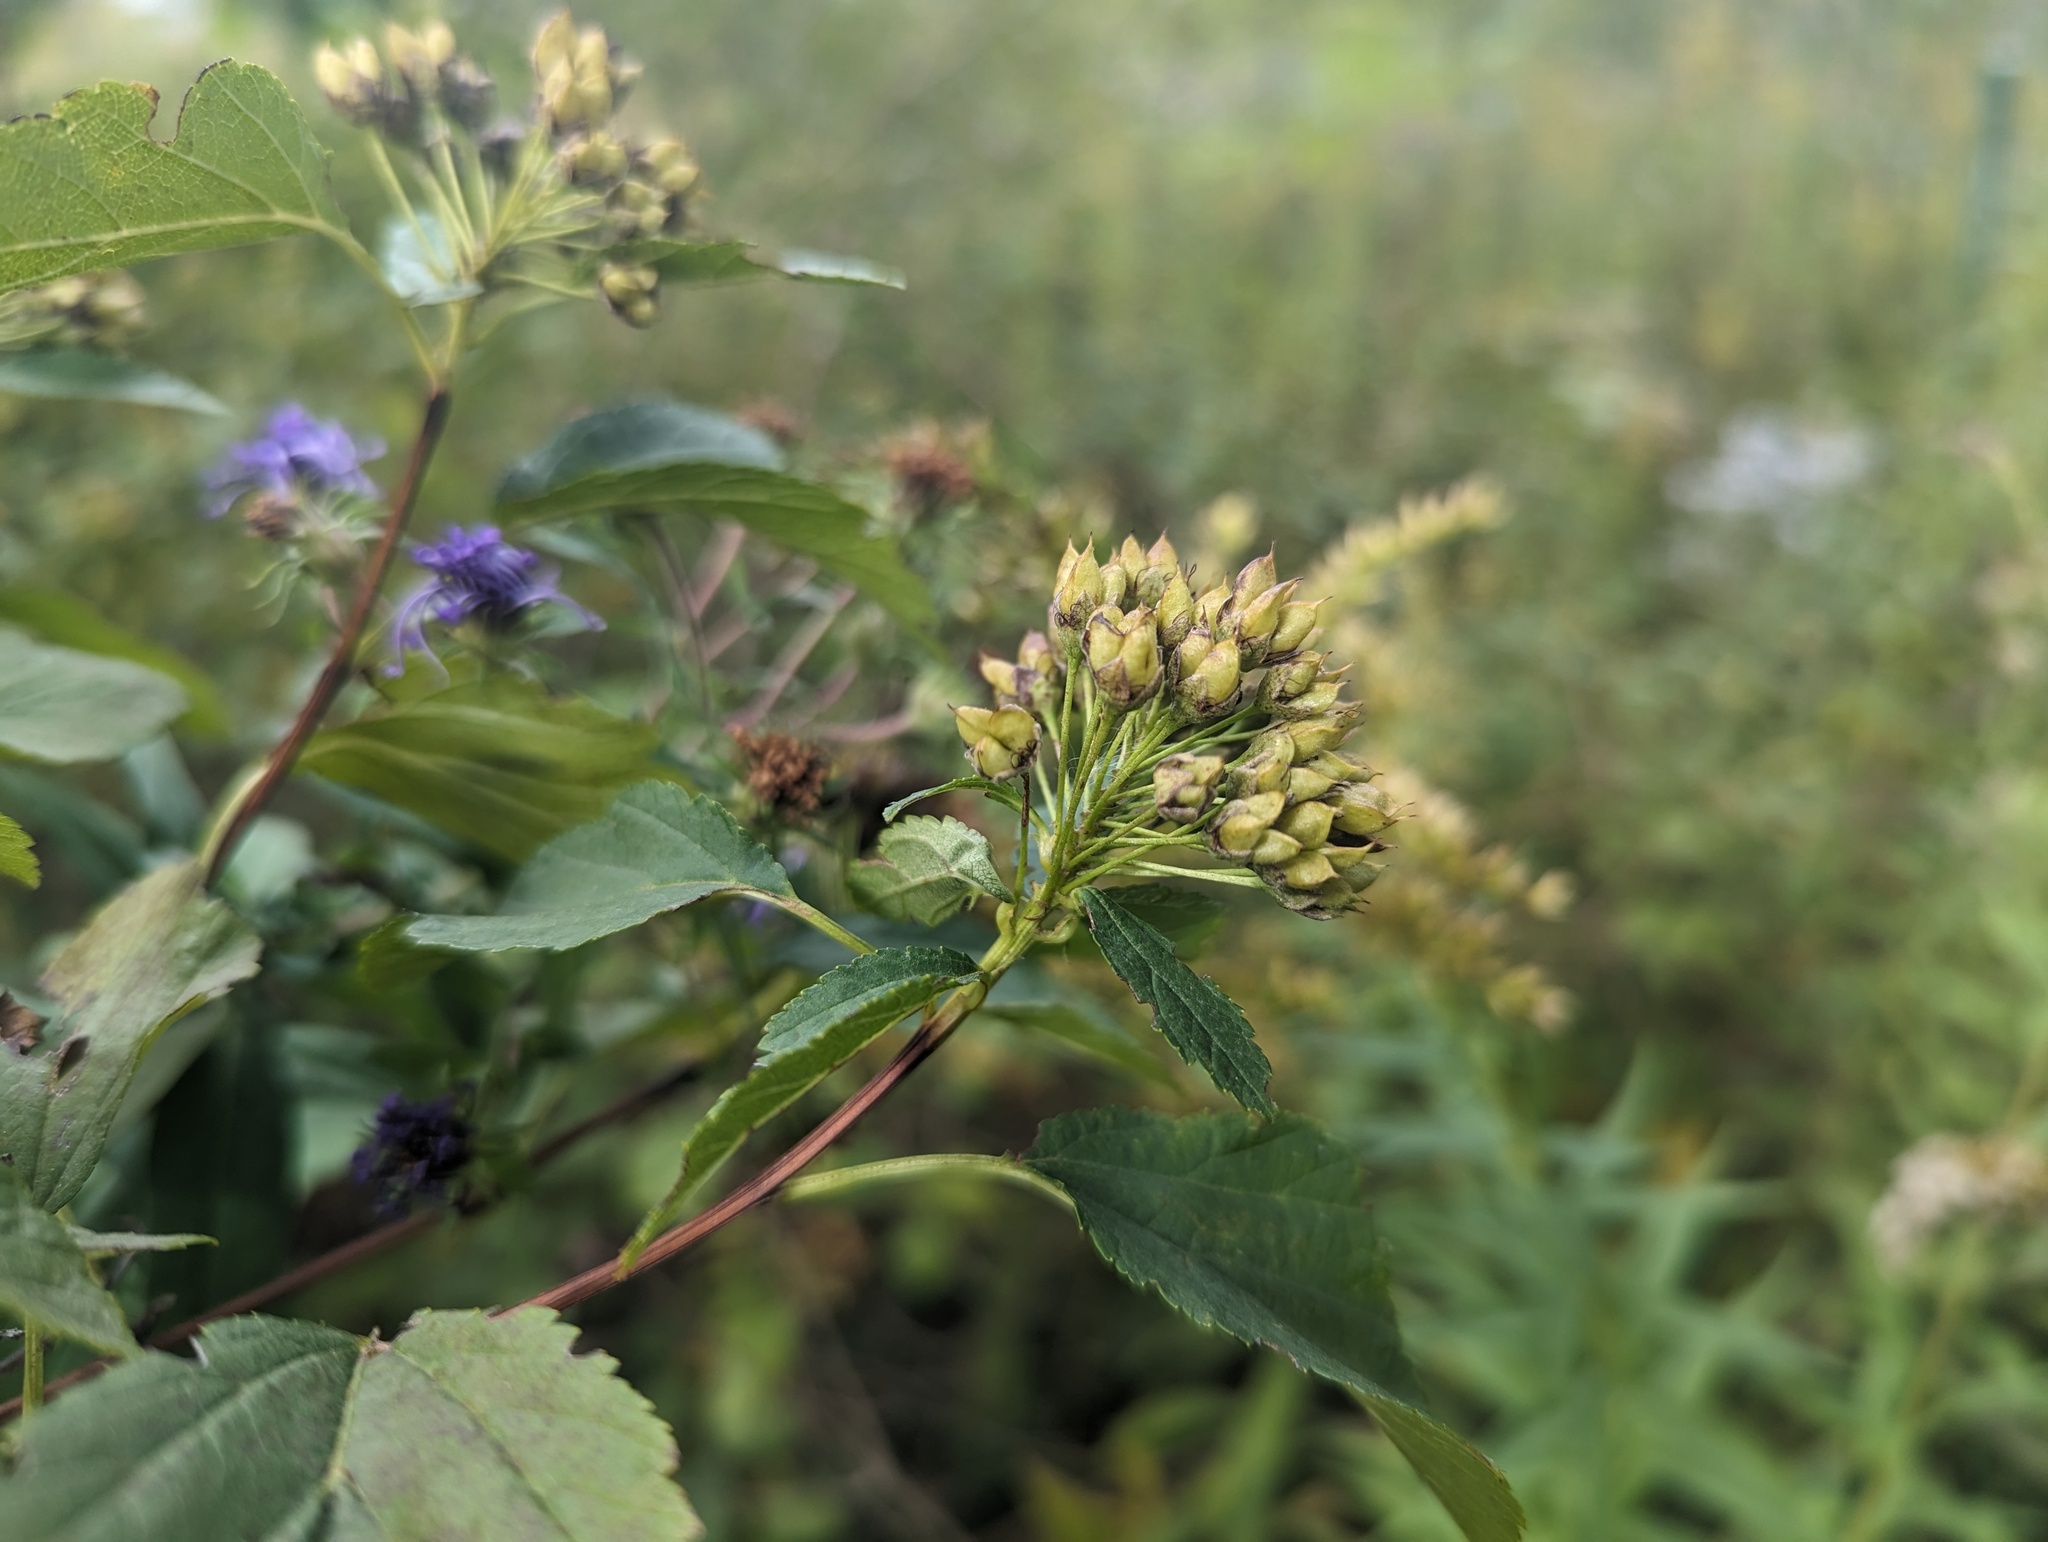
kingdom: Plantae
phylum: Tracheophyta
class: Magnoliopsida
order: Rosales
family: Rosaceae
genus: Physocarpus
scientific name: Physocarpus opulifolius
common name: Ninebark
